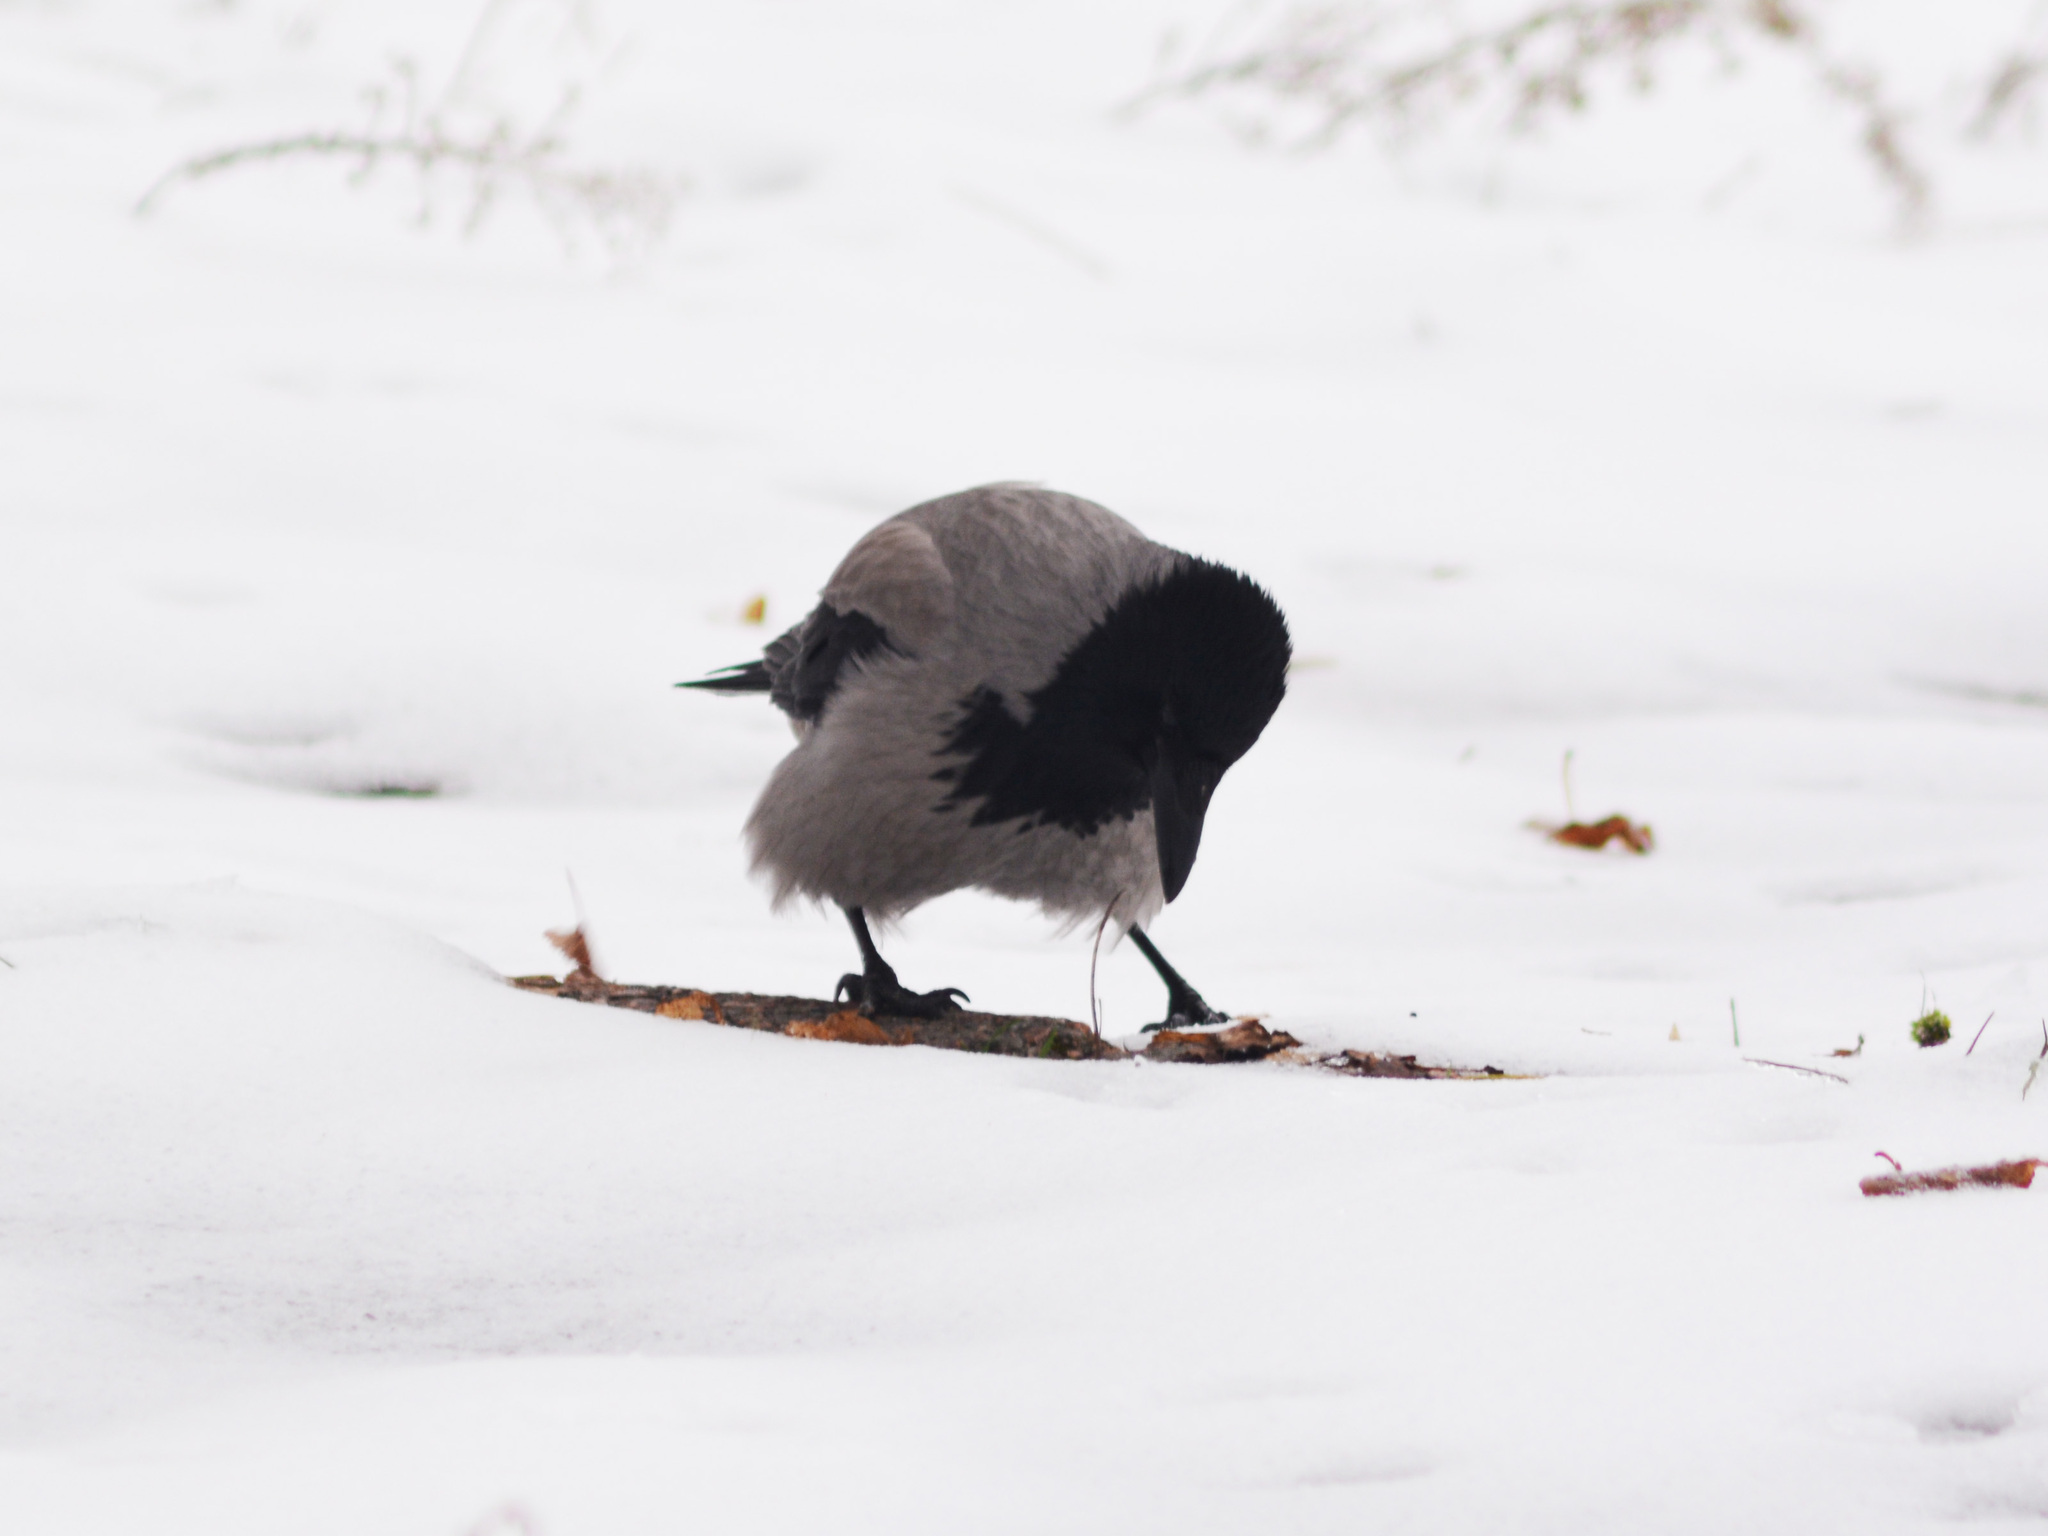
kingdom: Animalia
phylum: Chordata
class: Aves
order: Passeriformes
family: Corvidae
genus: Corvus
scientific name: Corvus cornix
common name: Hooded crow
